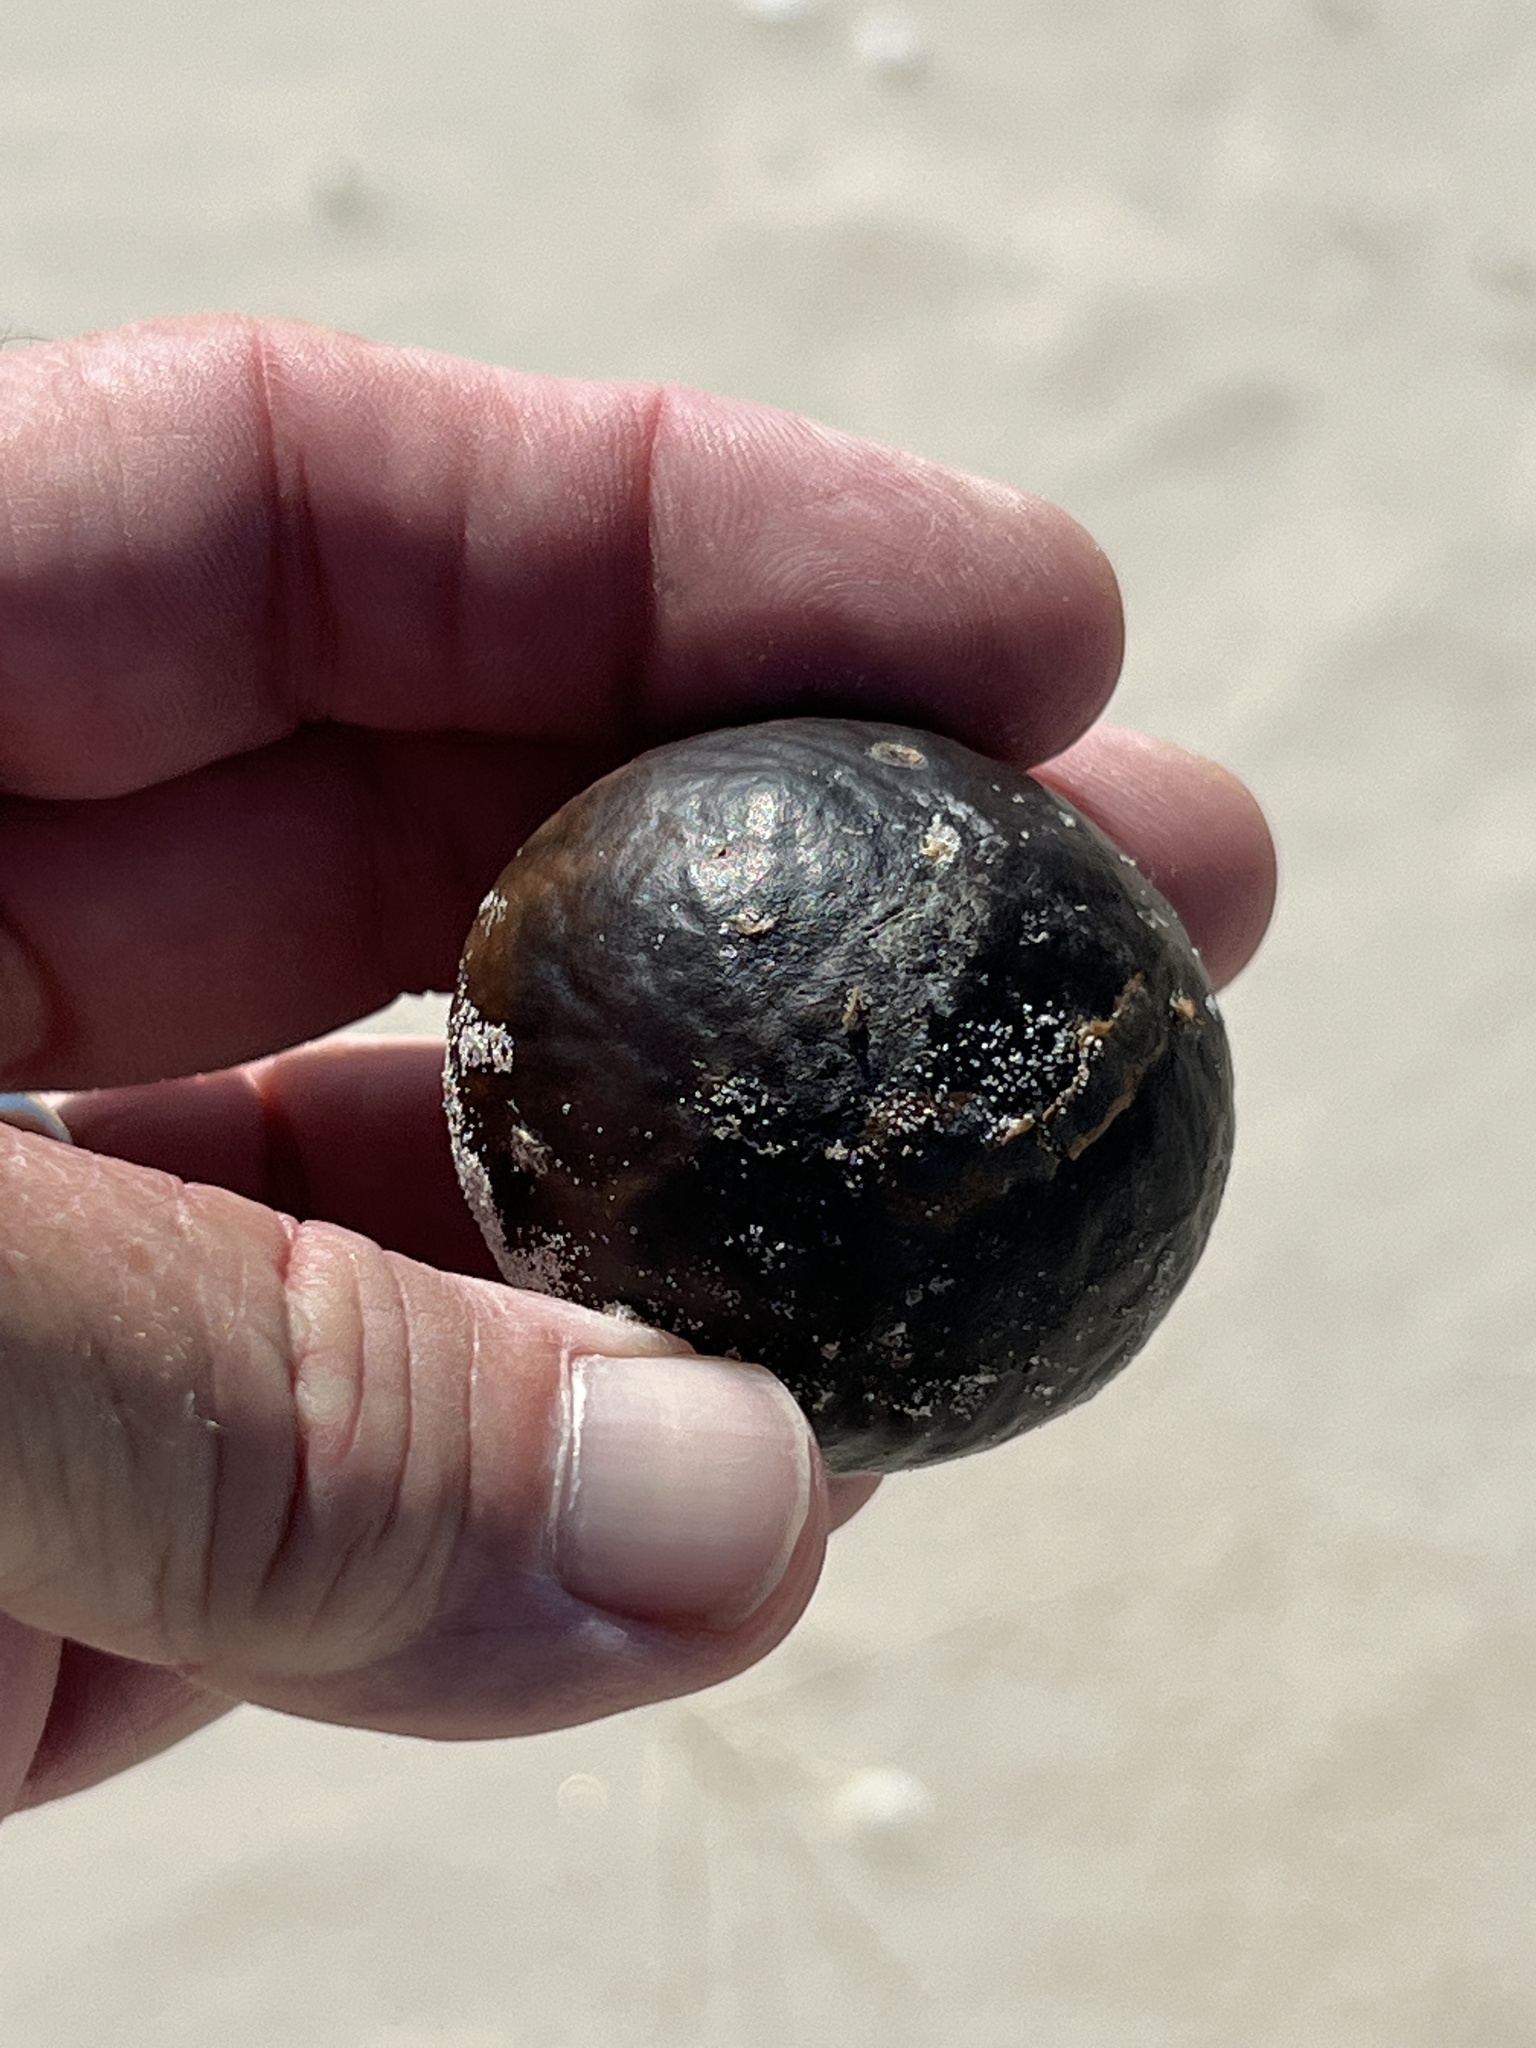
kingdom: Plantae
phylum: Tracheophyta
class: Liliopsida
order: Arecales
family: Arecaceae
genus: Manicaria
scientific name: Manicaria saccifera
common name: Sea coconut
